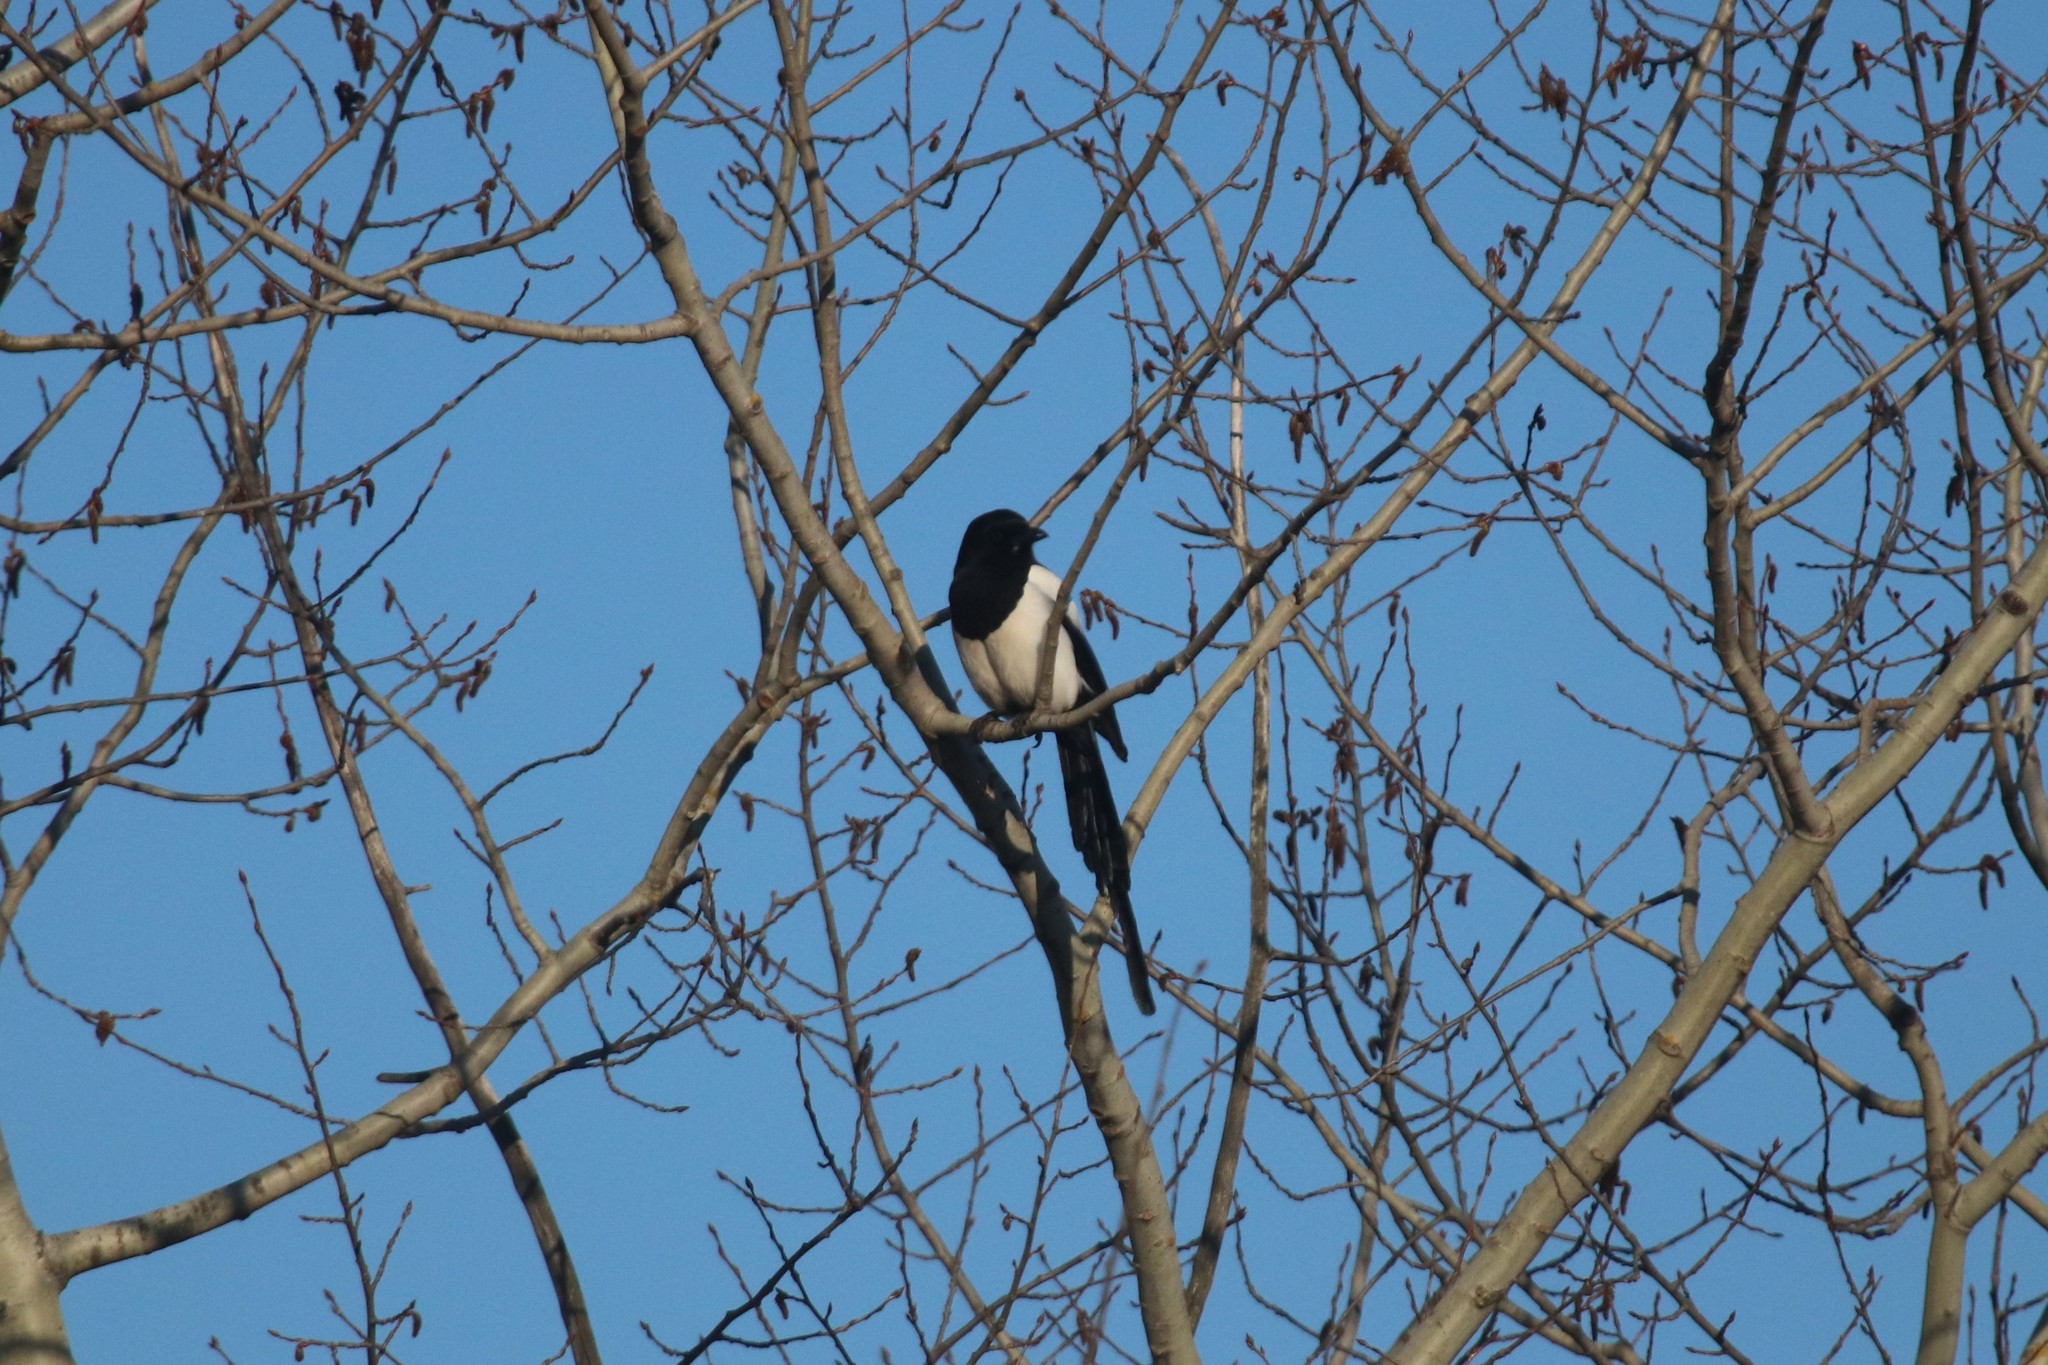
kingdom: Animalia
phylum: Chordata
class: Aves
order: Passeriformes
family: Corvidae
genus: Pica
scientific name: Pica pica
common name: Eurasian magpie
